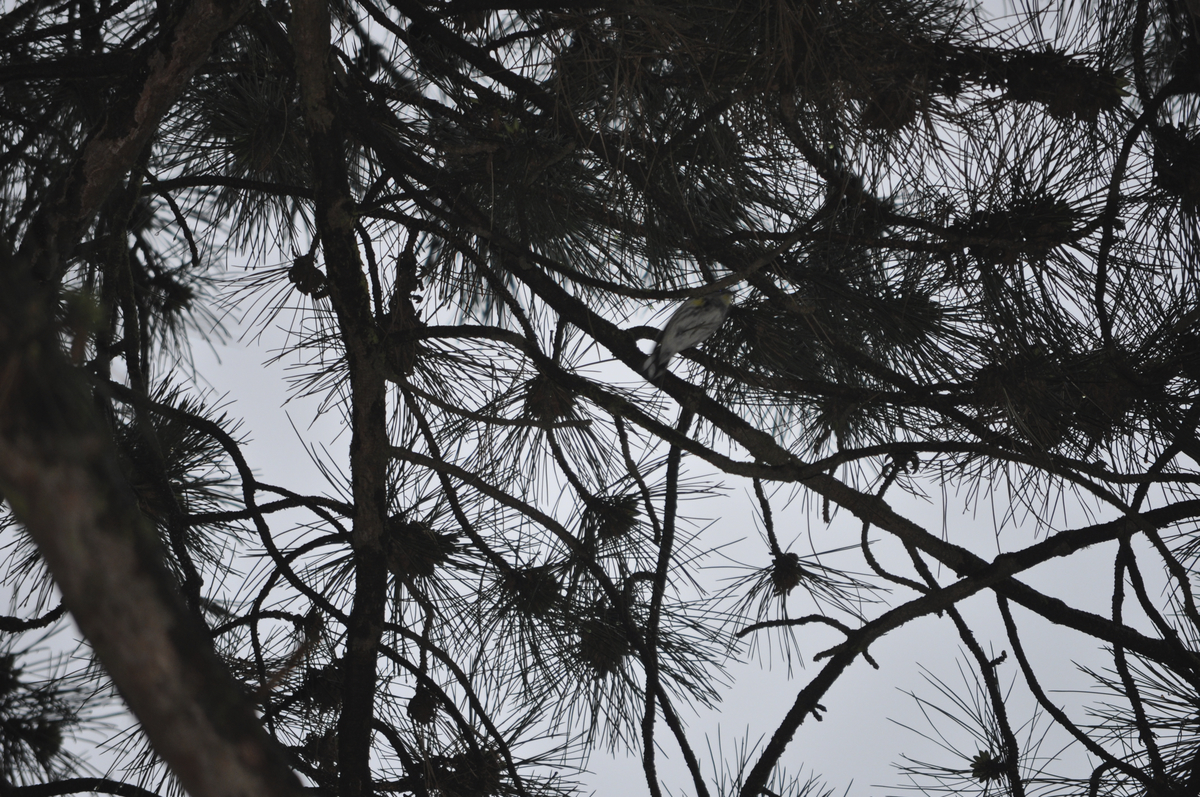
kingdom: Animalia
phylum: Chordata
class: Aves
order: Passeriformes
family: Parulidae
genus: Setophaga
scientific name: Setophaga coronata
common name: Myrtle warbler
